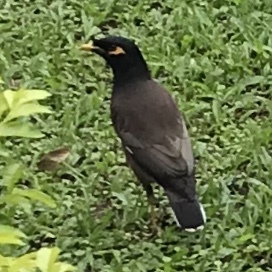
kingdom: Animalia
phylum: Chordata
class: Aves
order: Passeriformes
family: Sturnidae
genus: Acridotheres
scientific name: Acridotheres tristis
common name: Common myna
